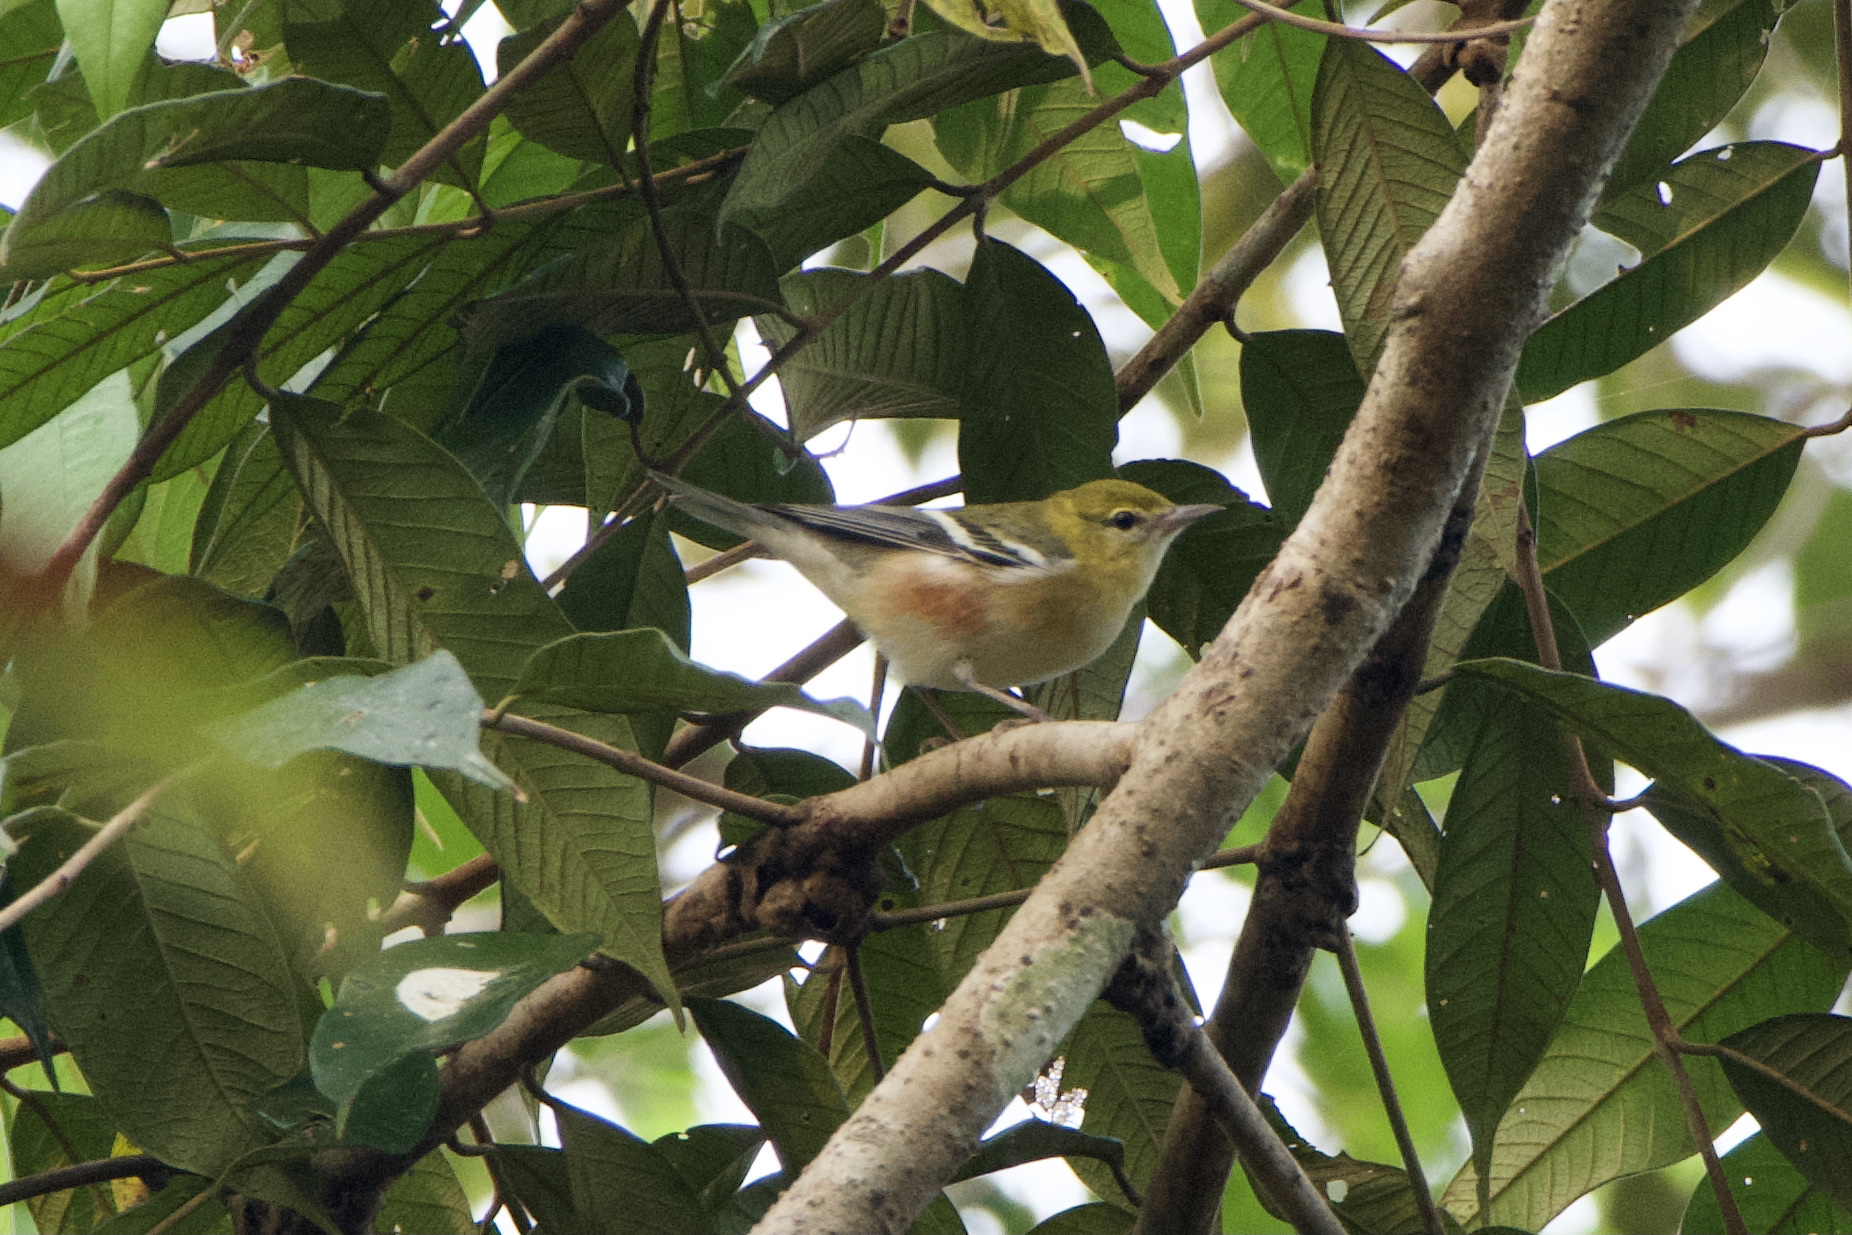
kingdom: Animalia
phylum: Chordata
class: Aves
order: Passeriformes
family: Parulidae
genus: Setophaga
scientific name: Setophaga castanea
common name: Bay-breasted warbler
